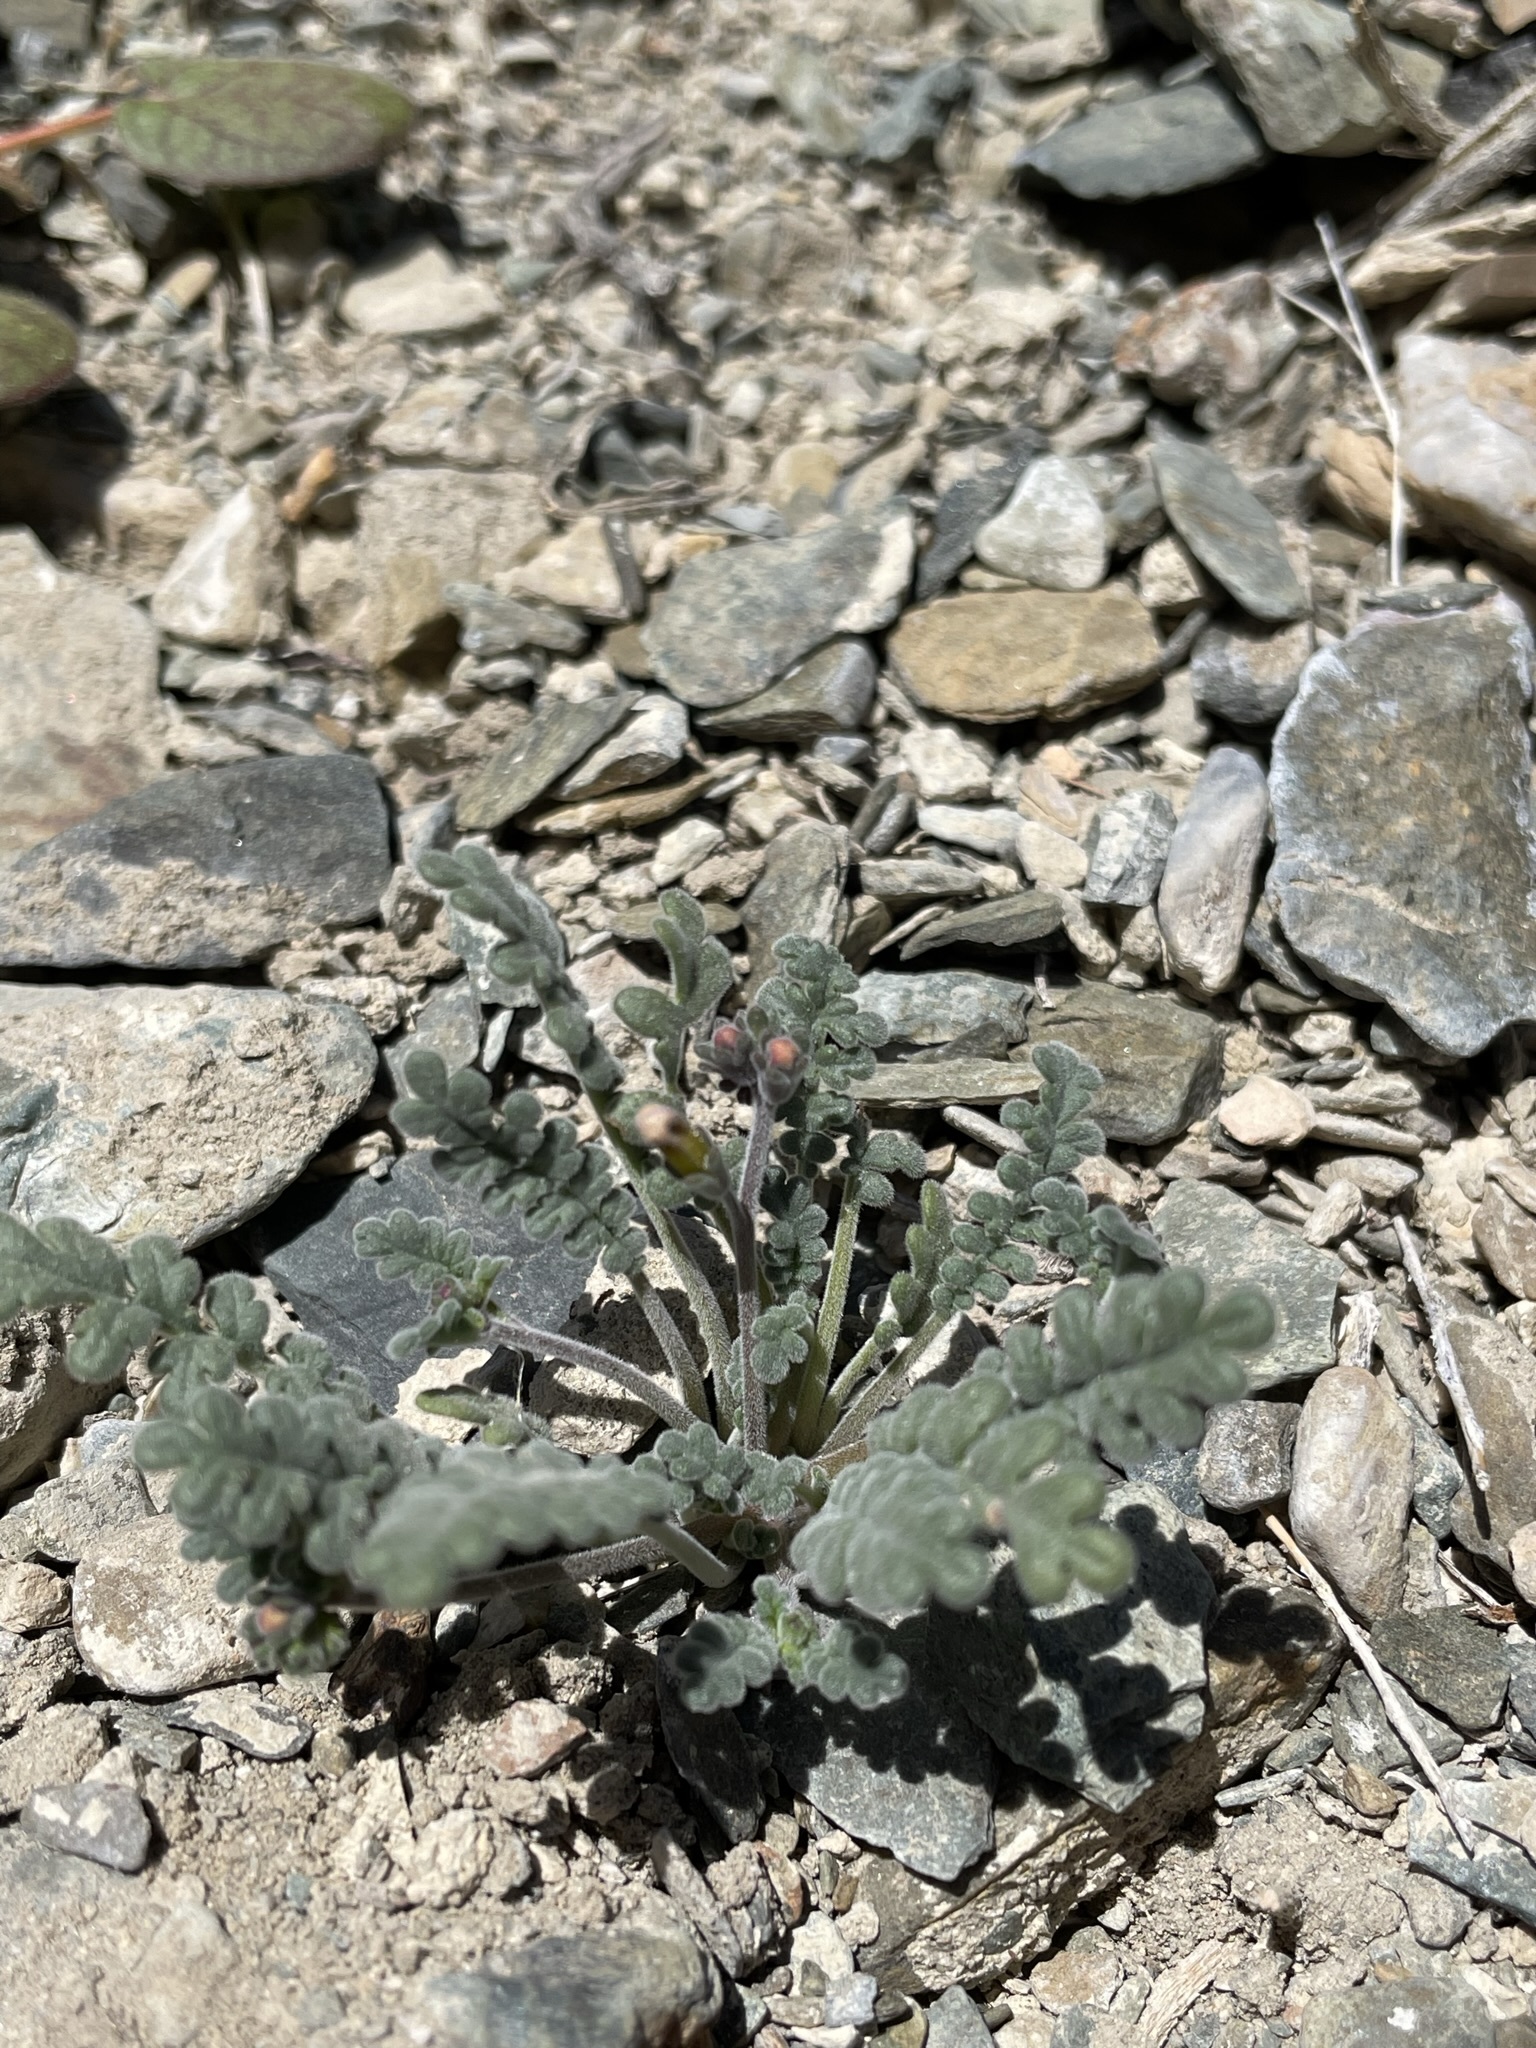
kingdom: Plantae
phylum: Tracheophyta
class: Magnoliopsida
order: Boraginales
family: Hydrophyllaceae
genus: Phacelia
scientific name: Phacelia fremontii
